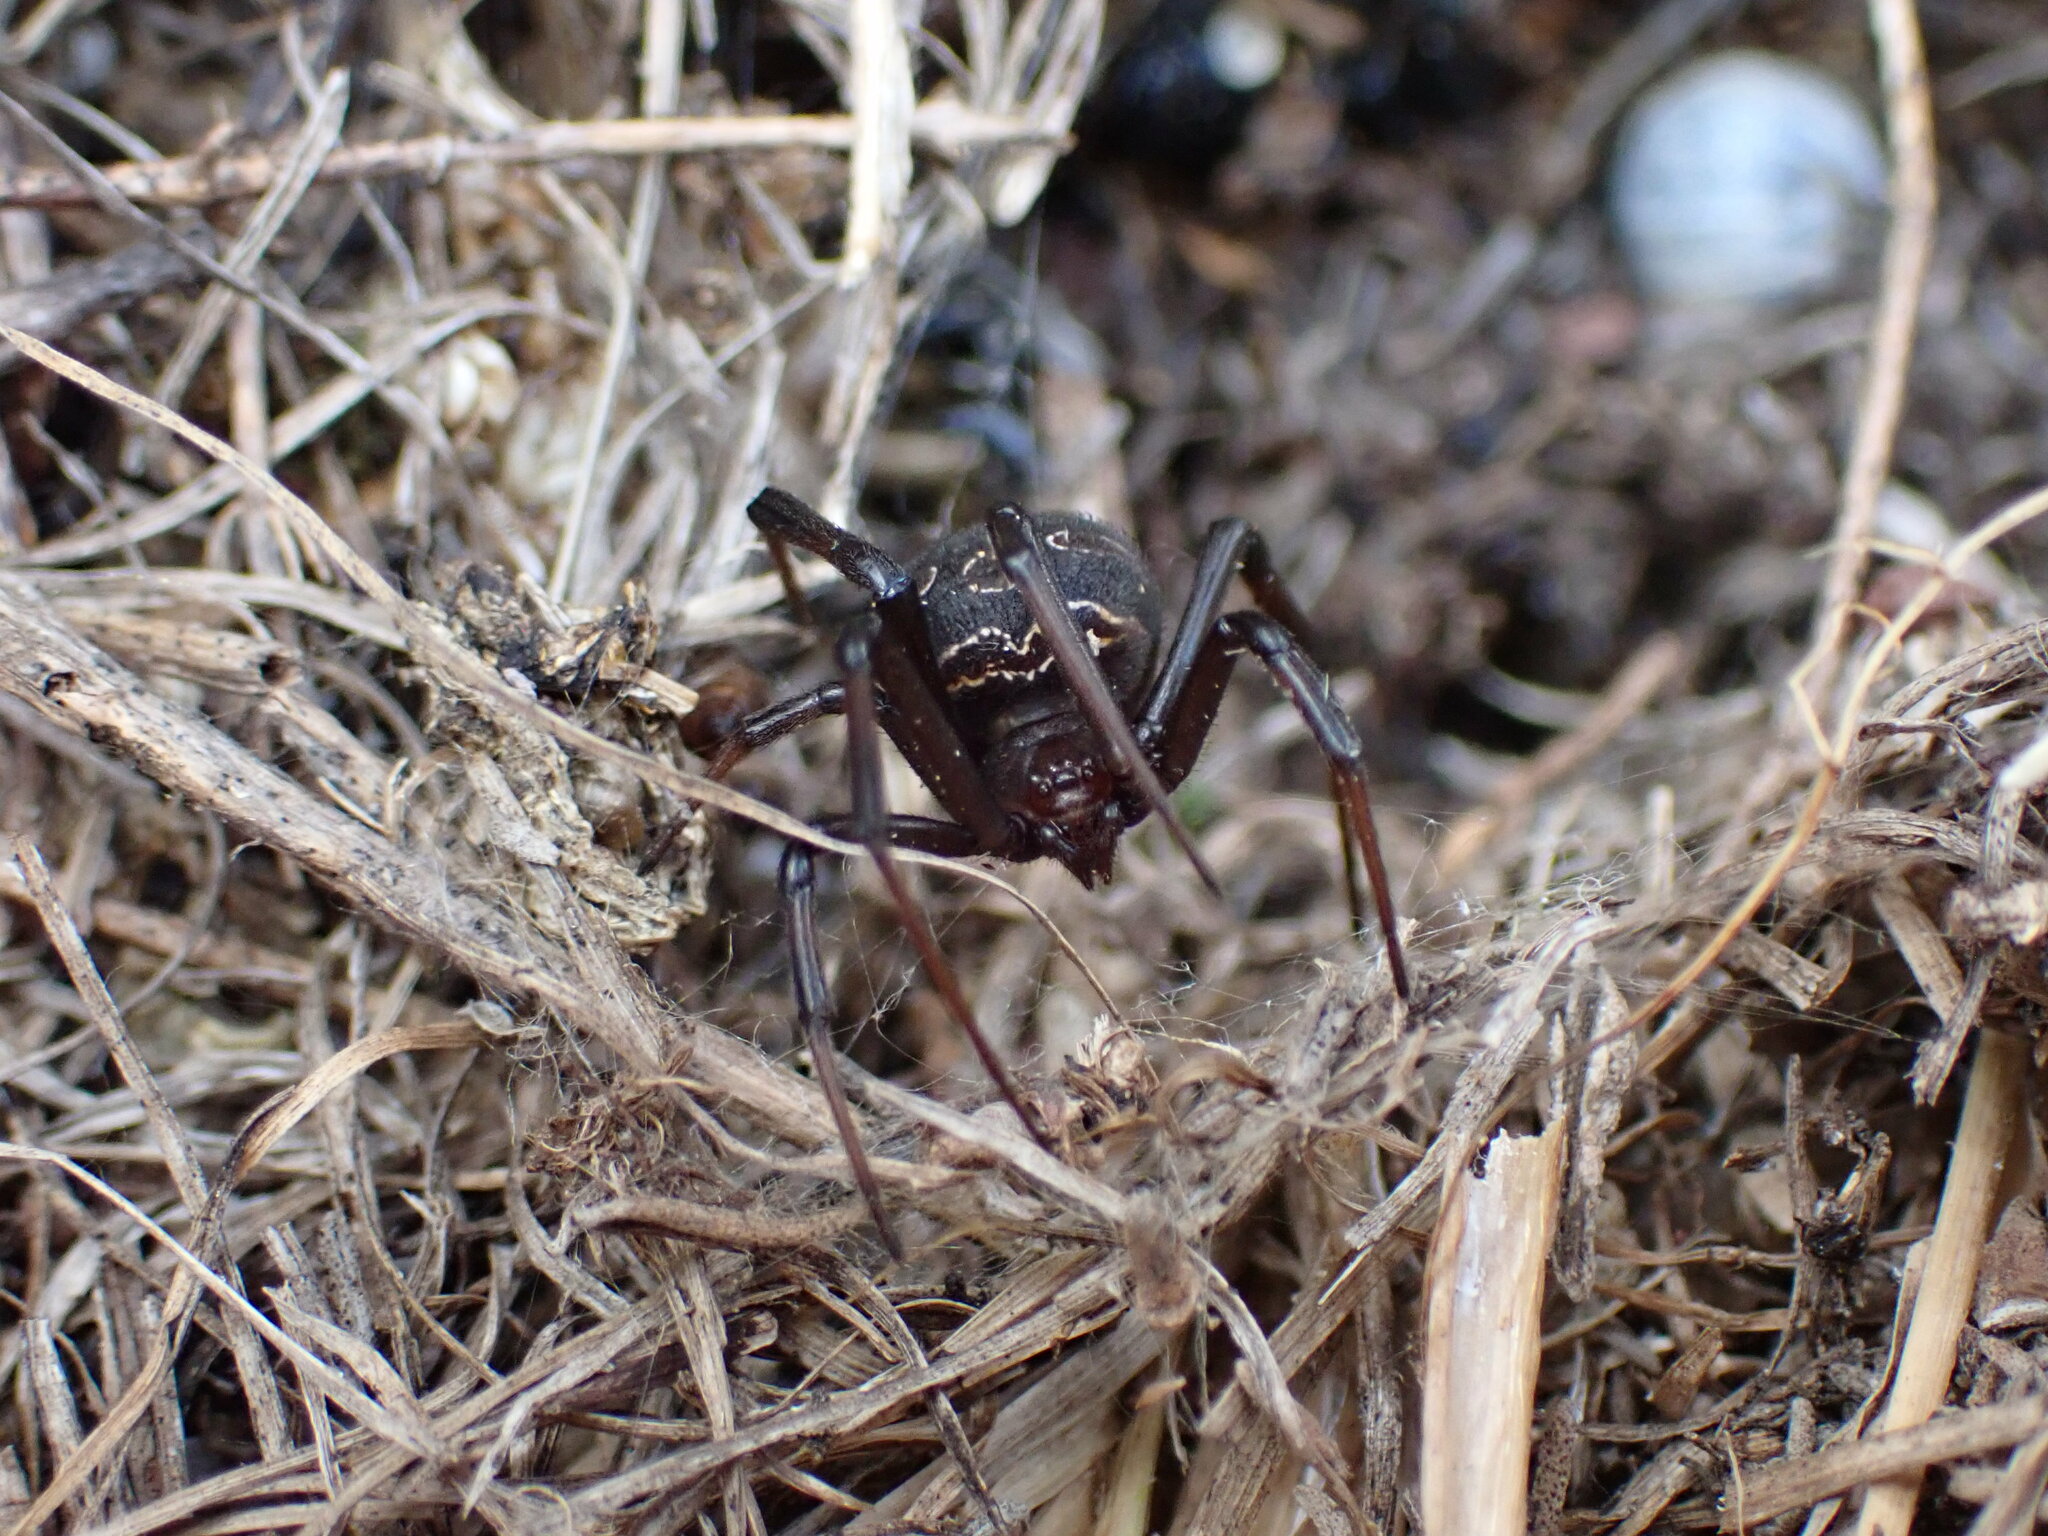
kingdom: Animalia
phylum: Arthropoda
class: Arachnida
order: Araneae
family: Theridiidae
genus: Latrodectus
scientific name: Latrodectus tredecimguttatus
